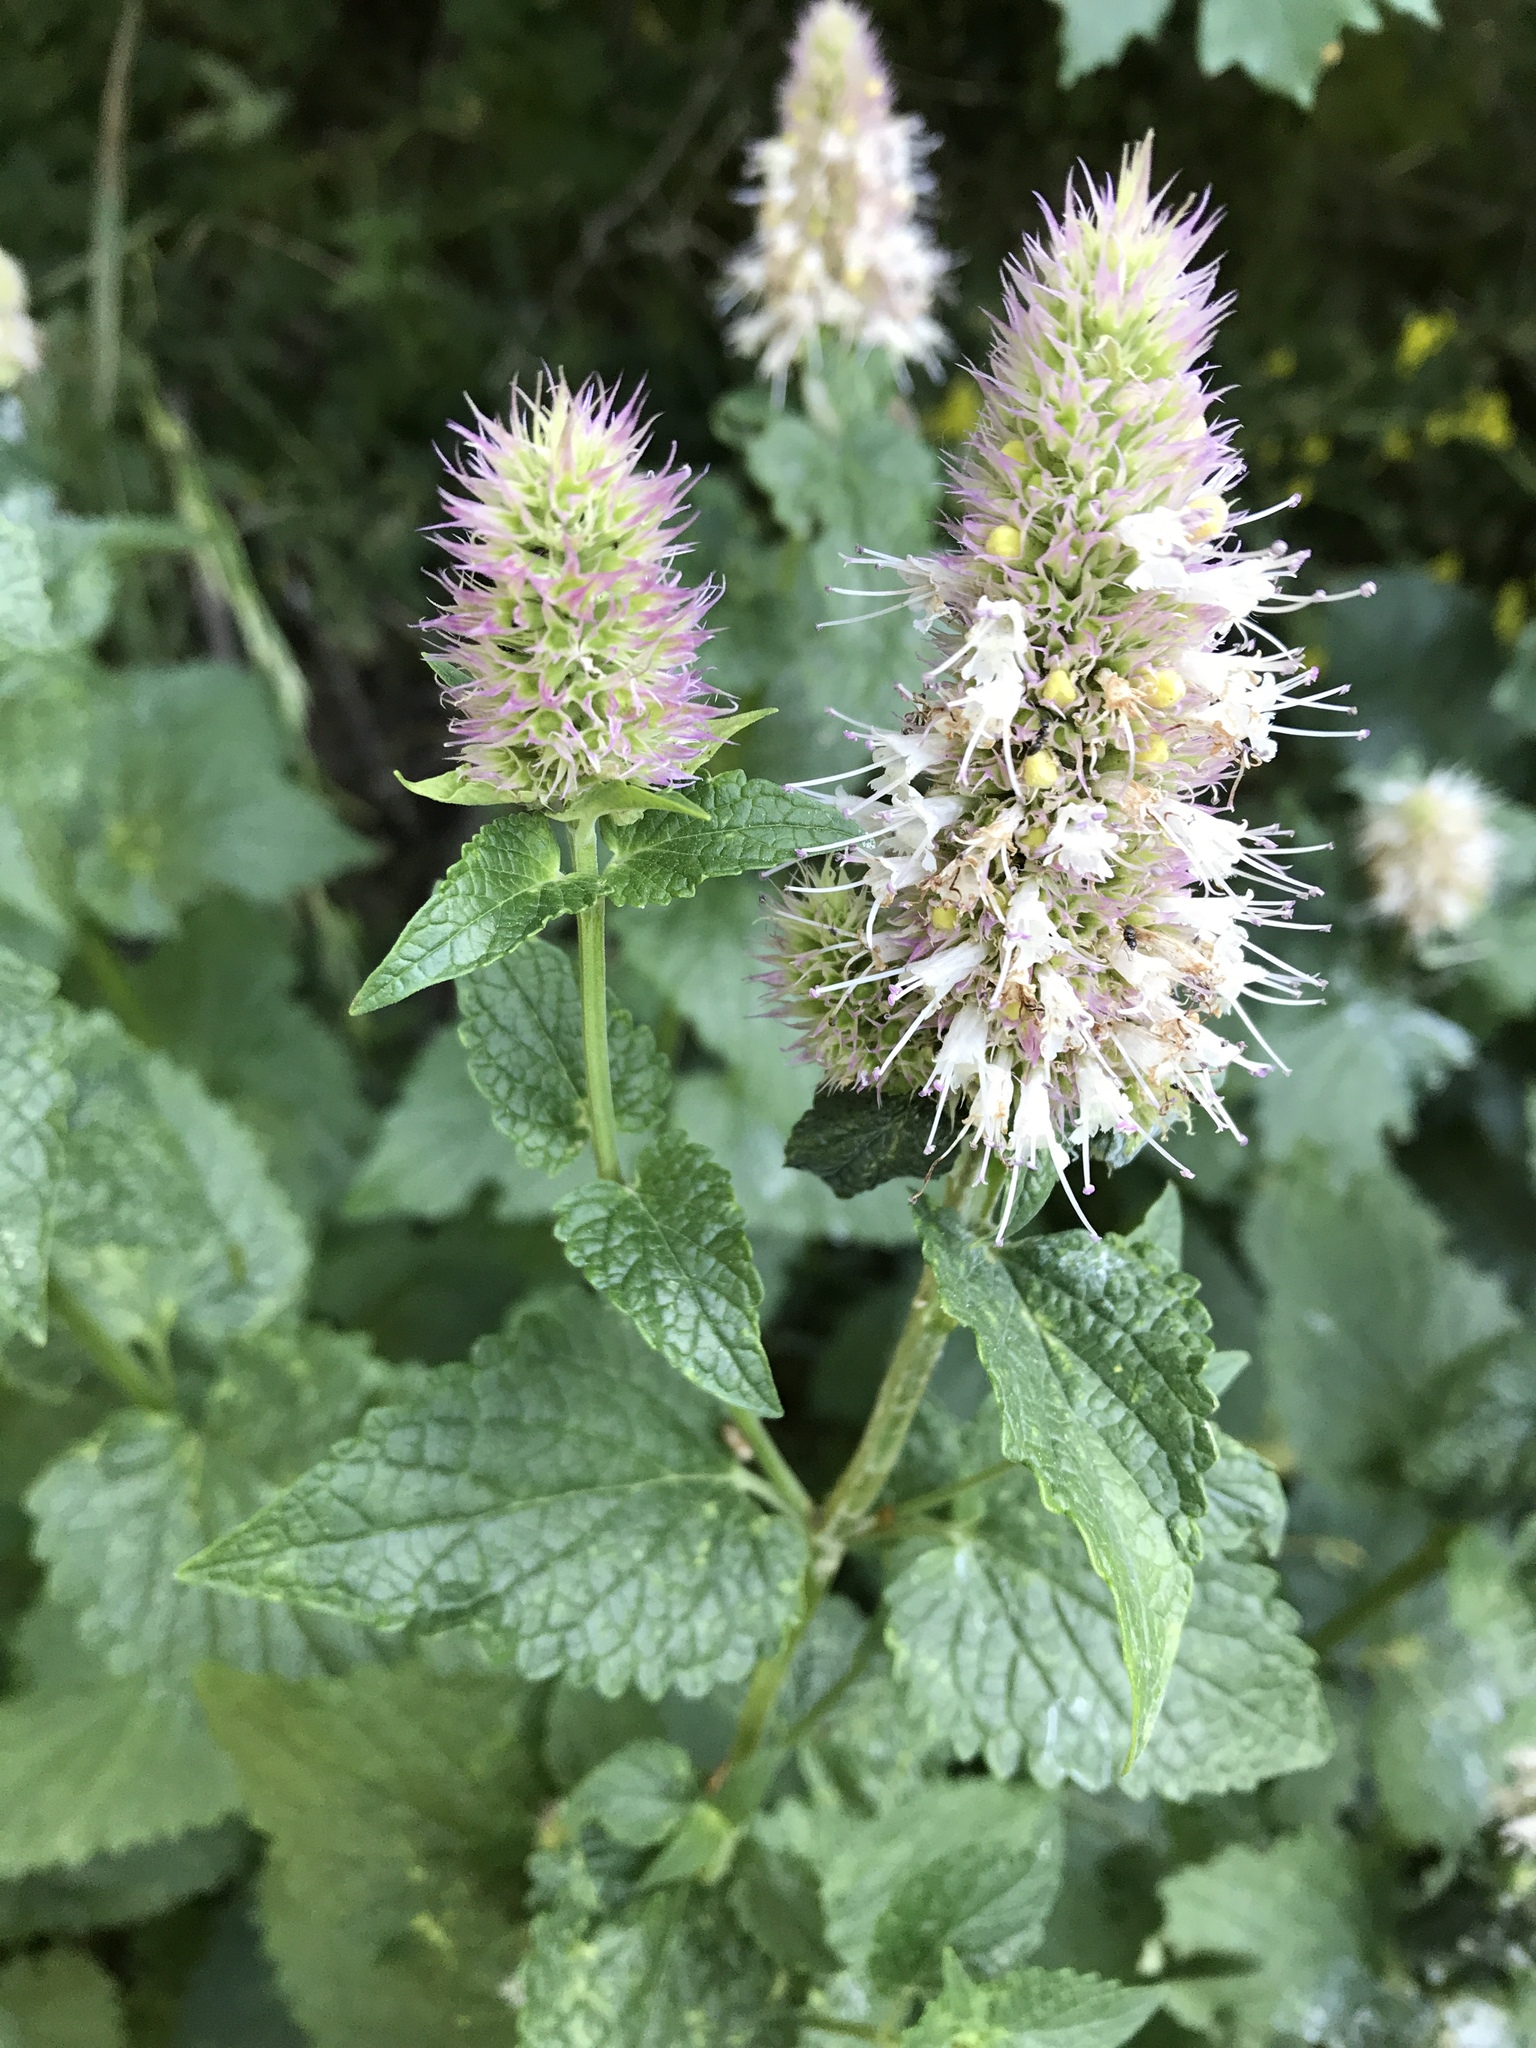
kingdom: Plantae
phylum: Tracheophyta
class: Magnoliopsida
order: Lamiales
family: Lamiaceae
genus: Agastache
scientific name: Agastache urticifolia
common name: Horsemint giant hyssop
